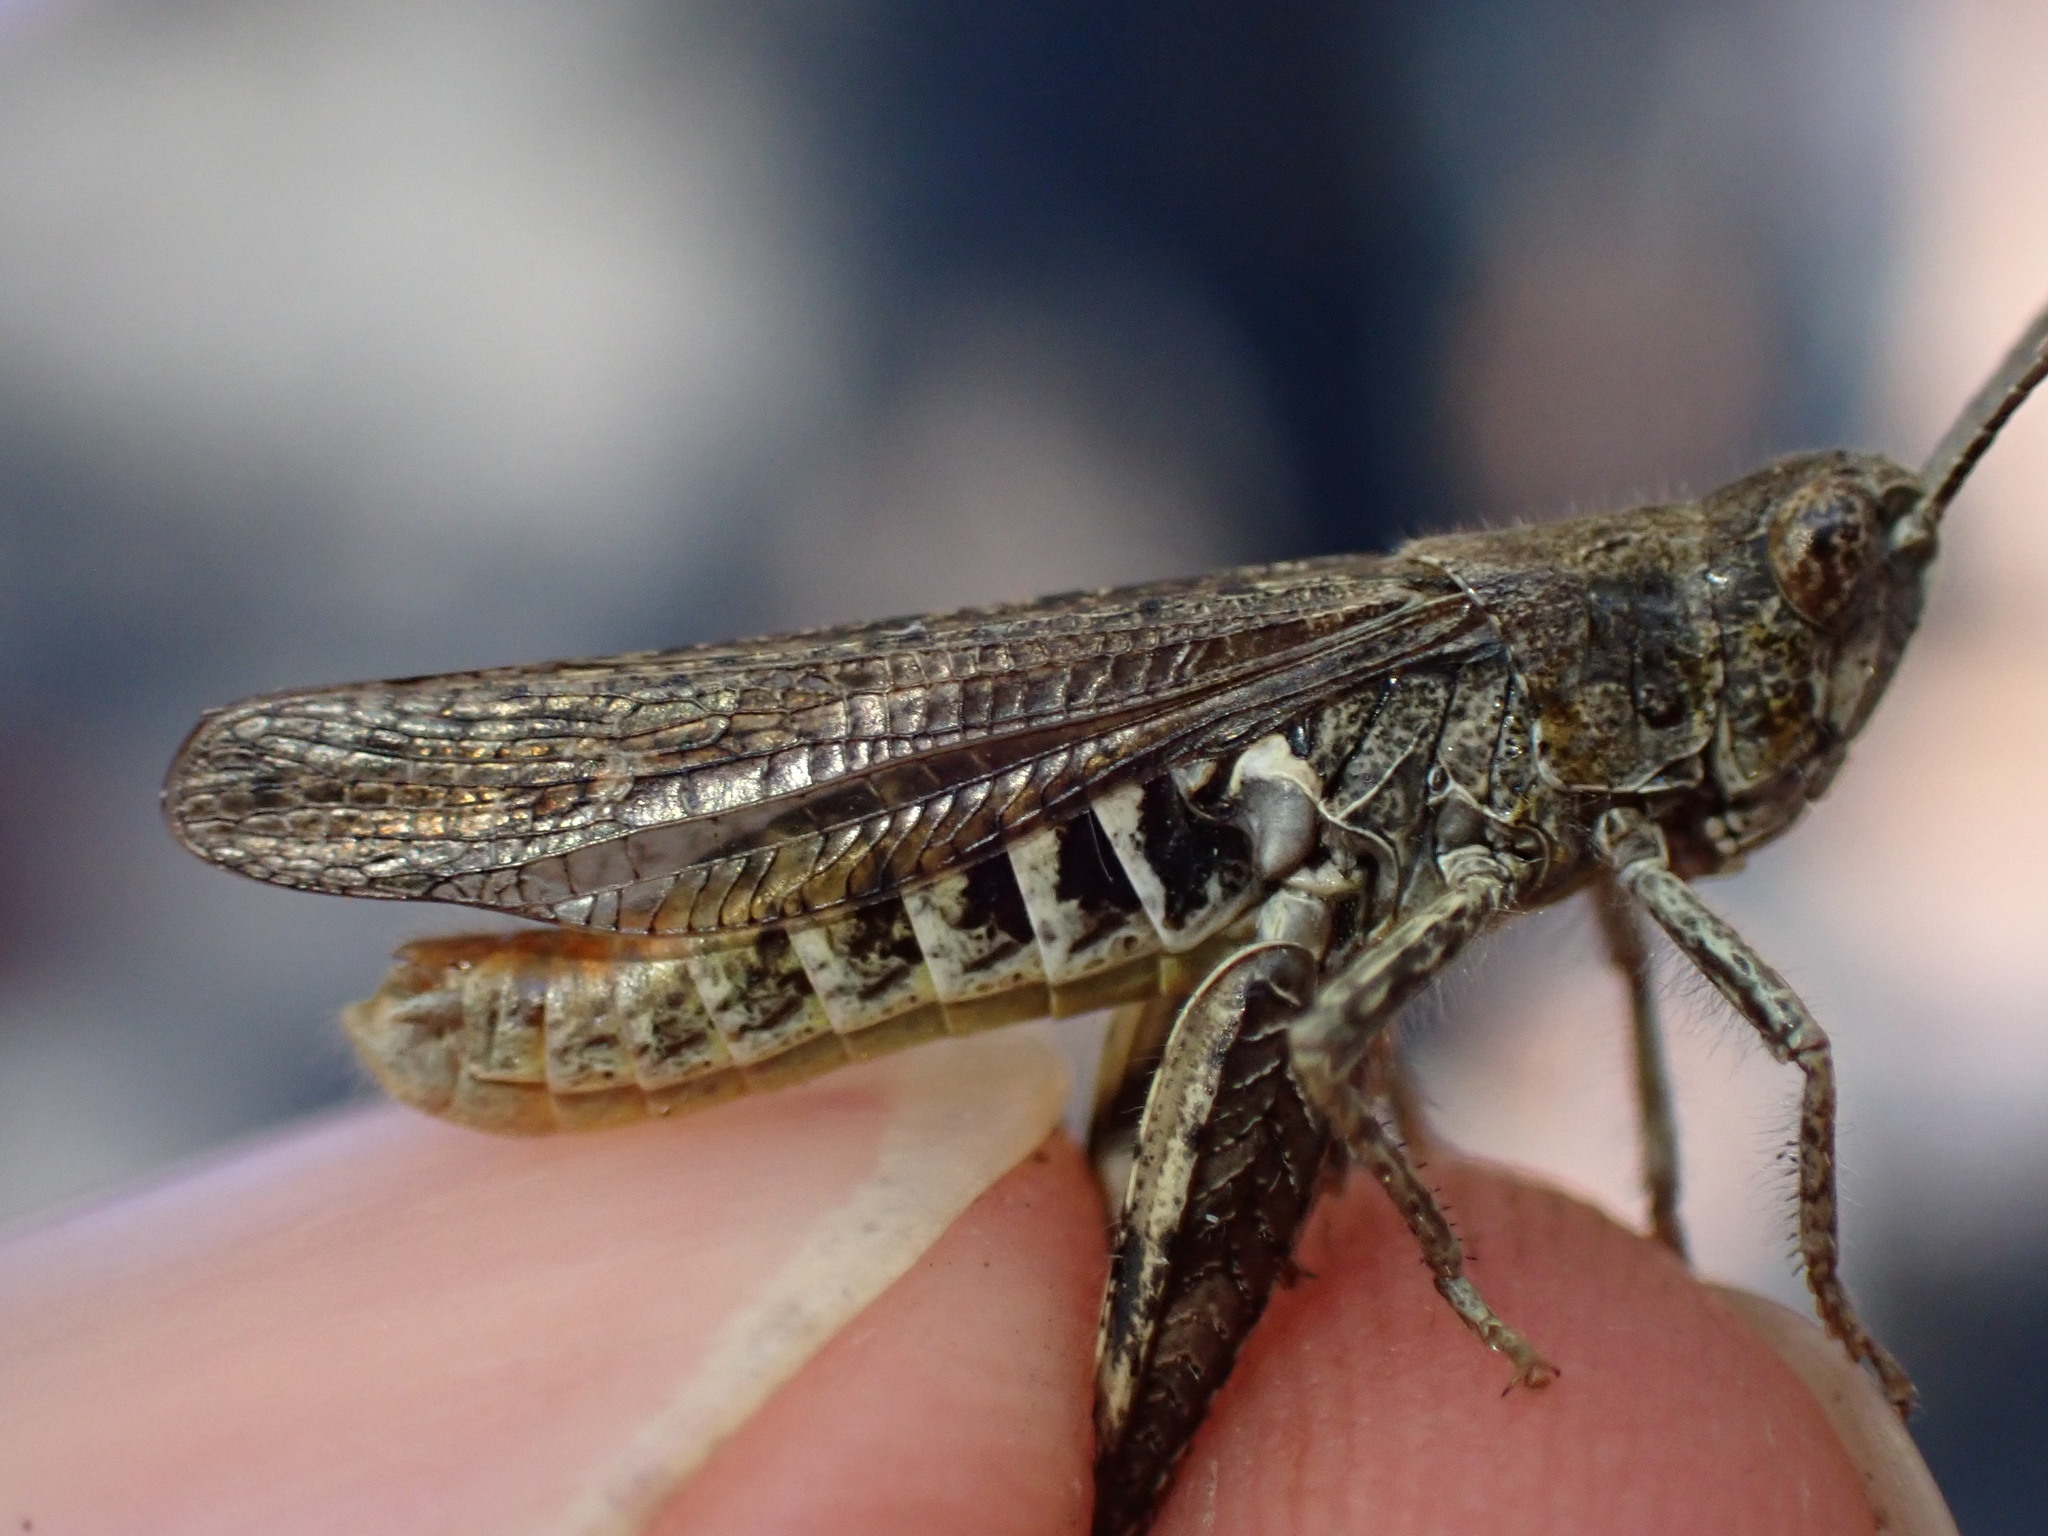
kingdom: Animalia
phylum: Arthropoda
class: Insecta
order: Orthoptera
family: Acrididae
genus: Chorthippus
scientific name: Chorthippus biguttulus
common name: Bow-winged grasshopper
